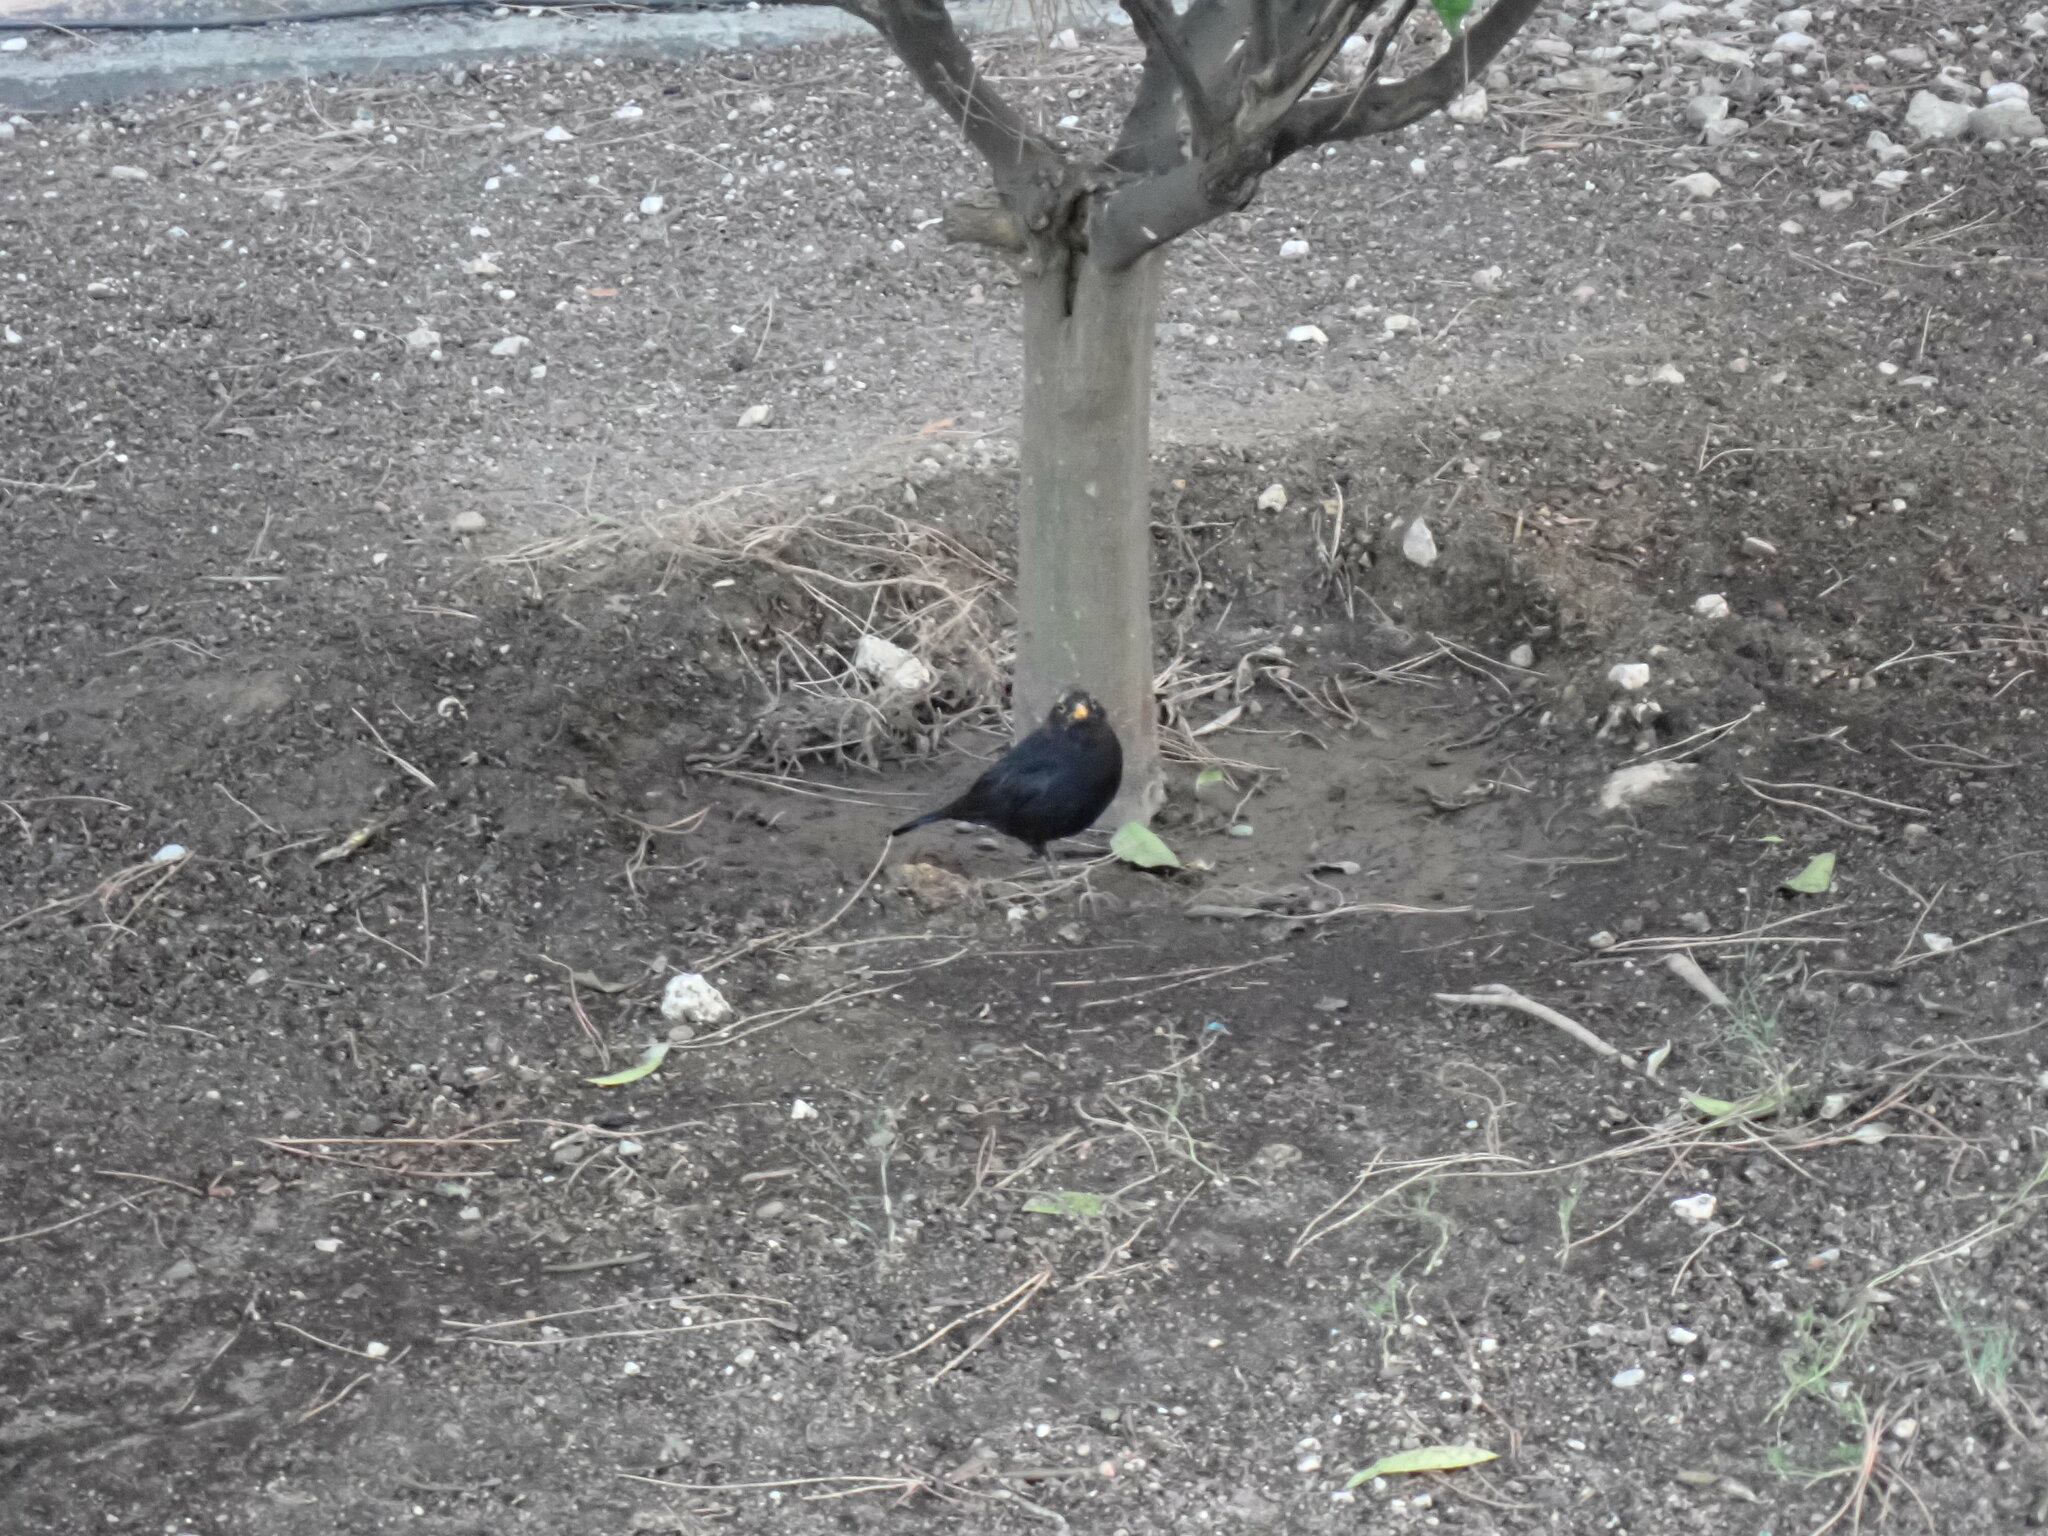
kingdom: Animalia
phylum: Chordata
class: Aves
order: Passeriformes
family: Turdidae
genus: Turdus
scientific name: Turdus merula
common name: Common blackbird
